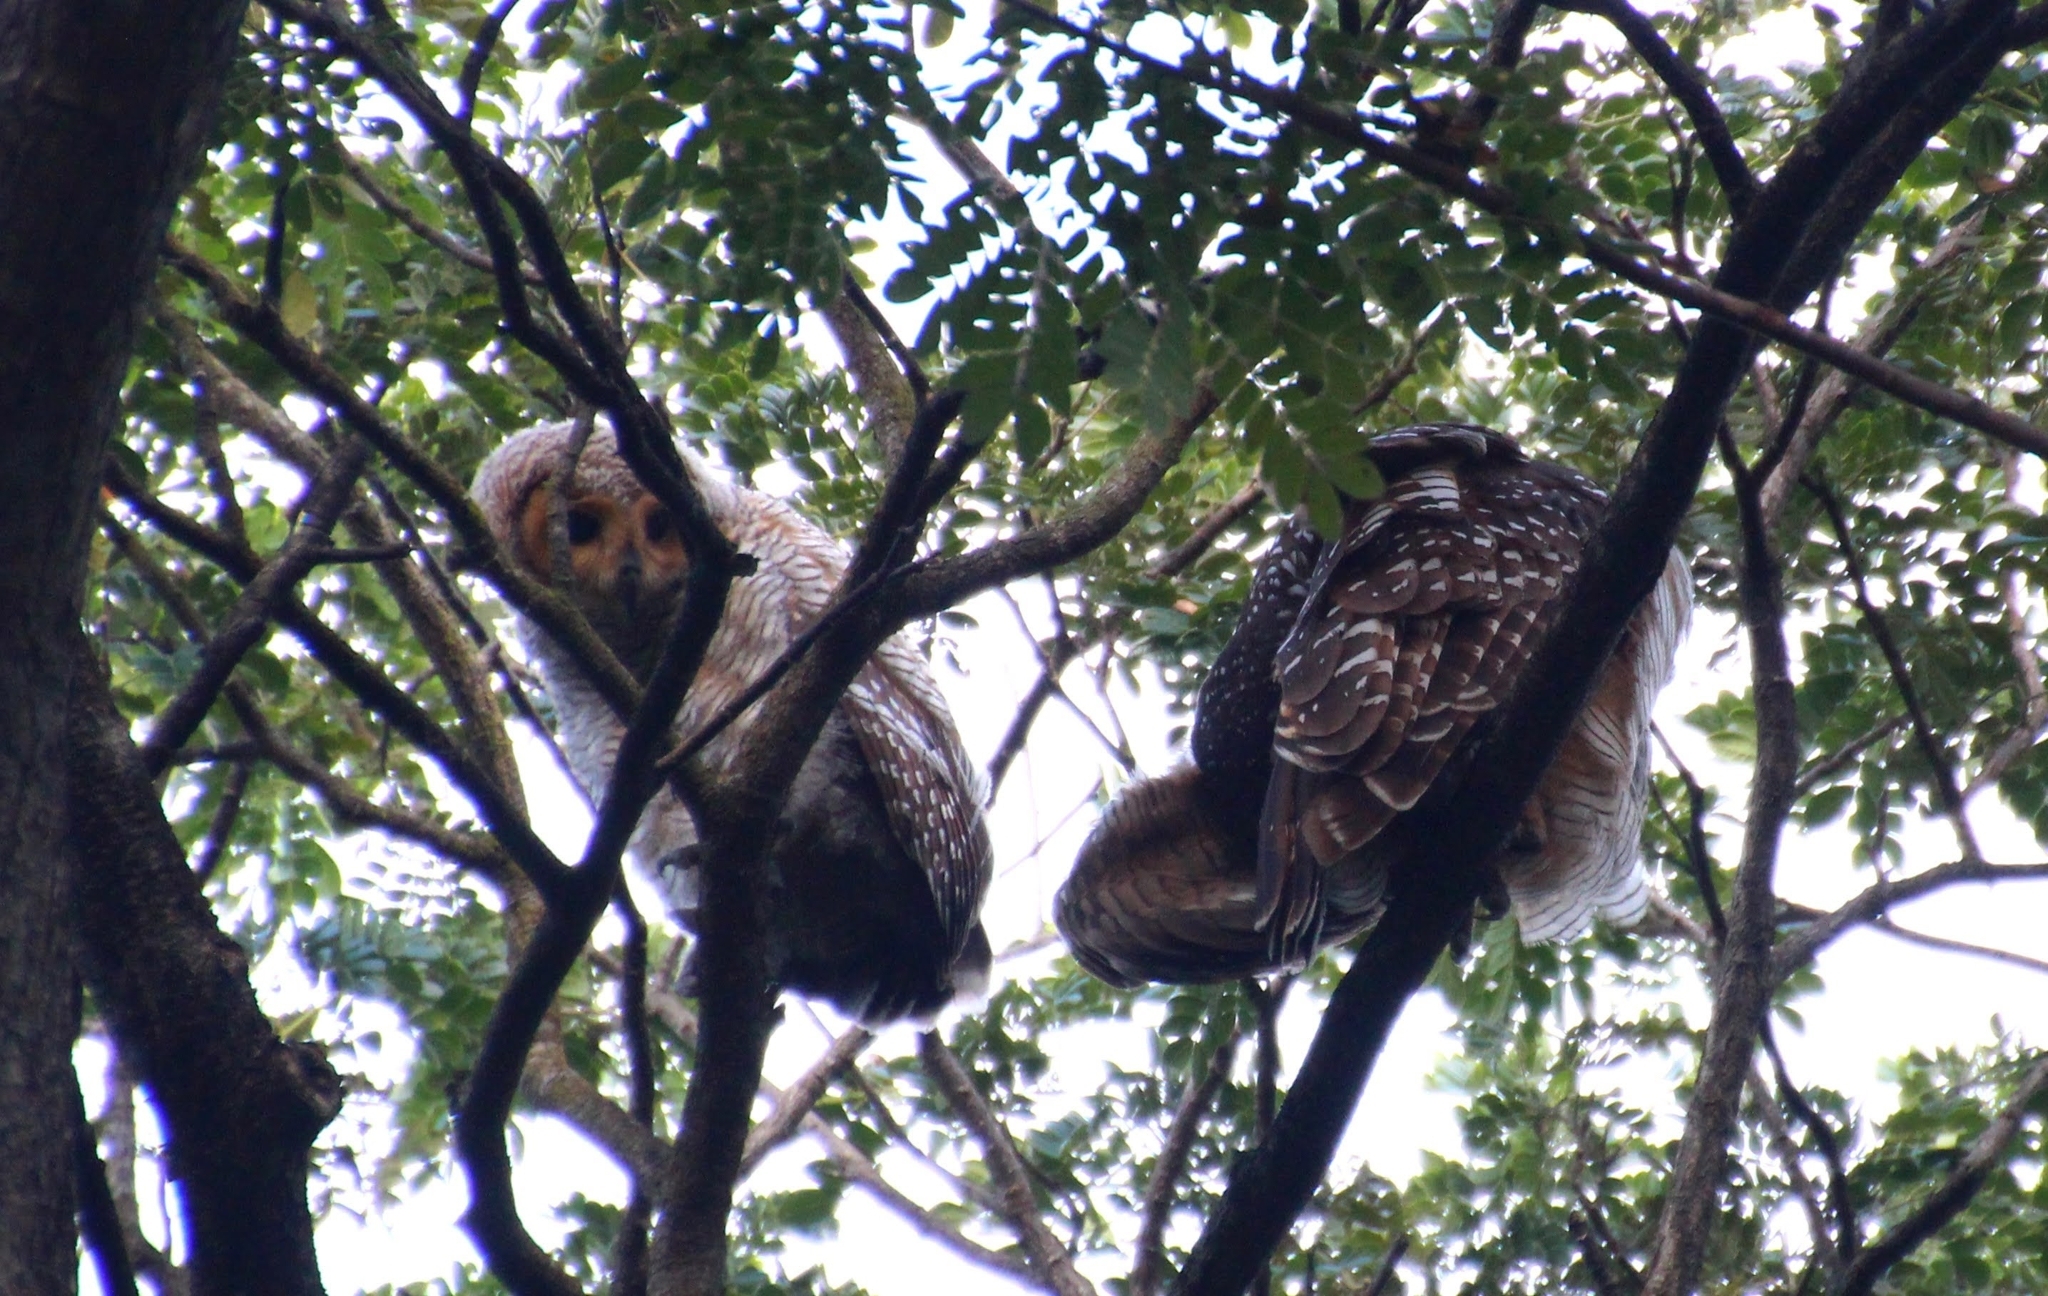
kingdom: Animalia
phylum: Chordata
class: Aves
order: Strigiformes
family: Strigidae
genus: Strix
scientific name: Strix seloputo
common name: Spotted wood owl
